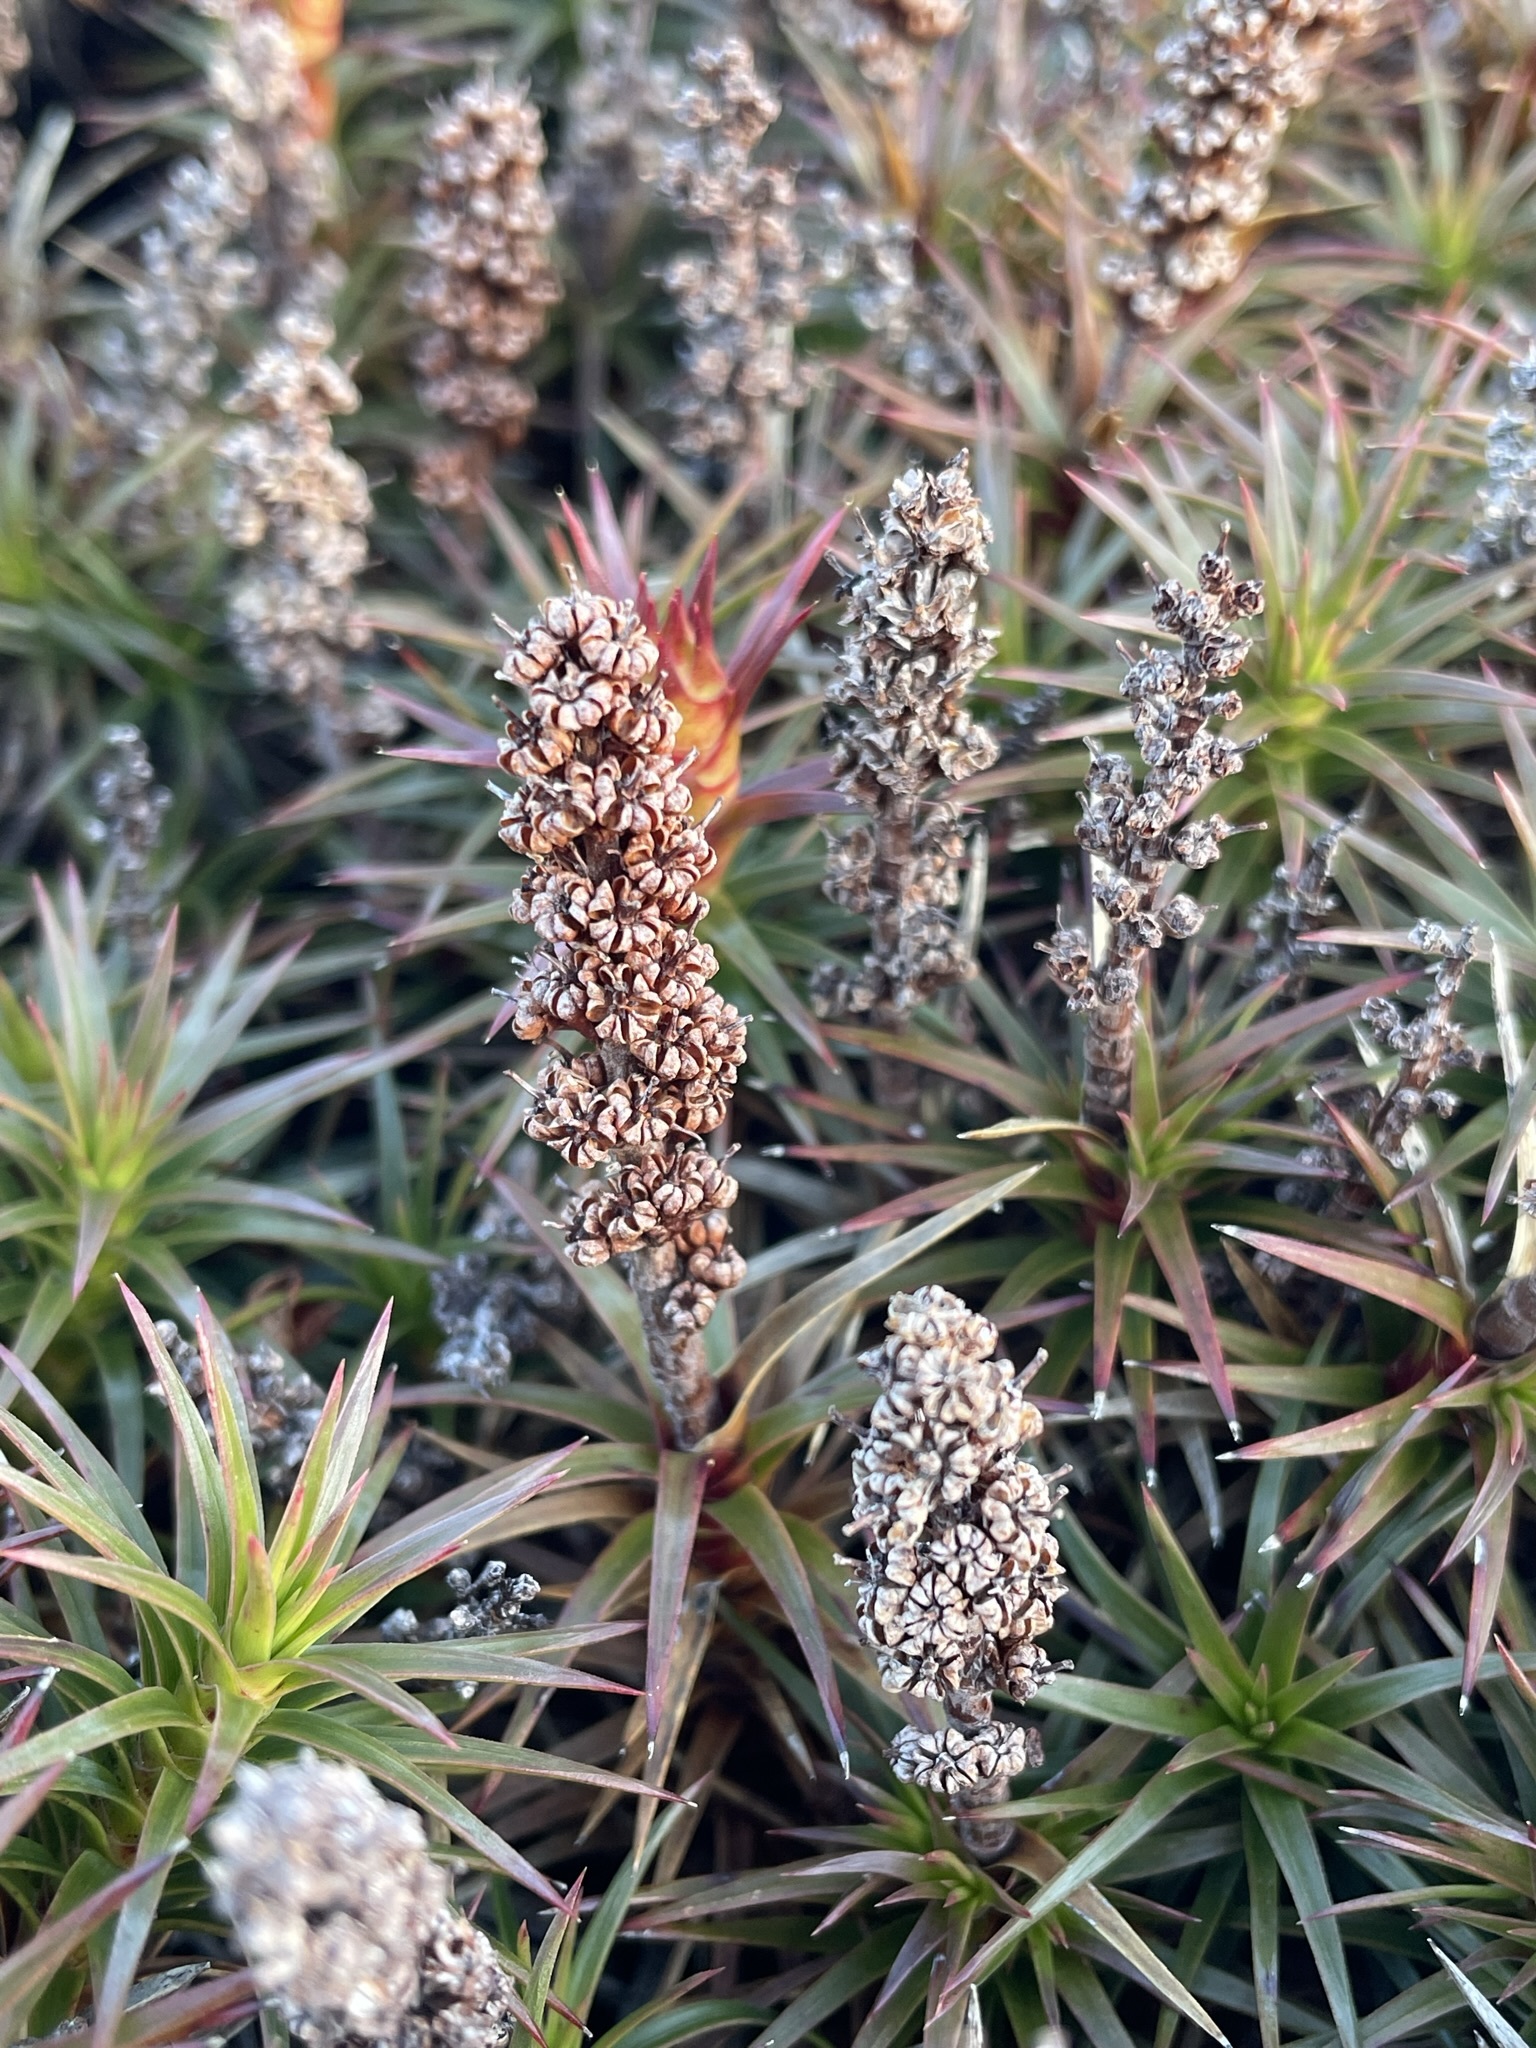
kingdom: Plantae
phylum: Tracheophyta
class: Magnoliopsida
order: Ericales
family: Ericaceae
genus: Dracophyllum
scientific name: Dracophyllum persistentifolium
